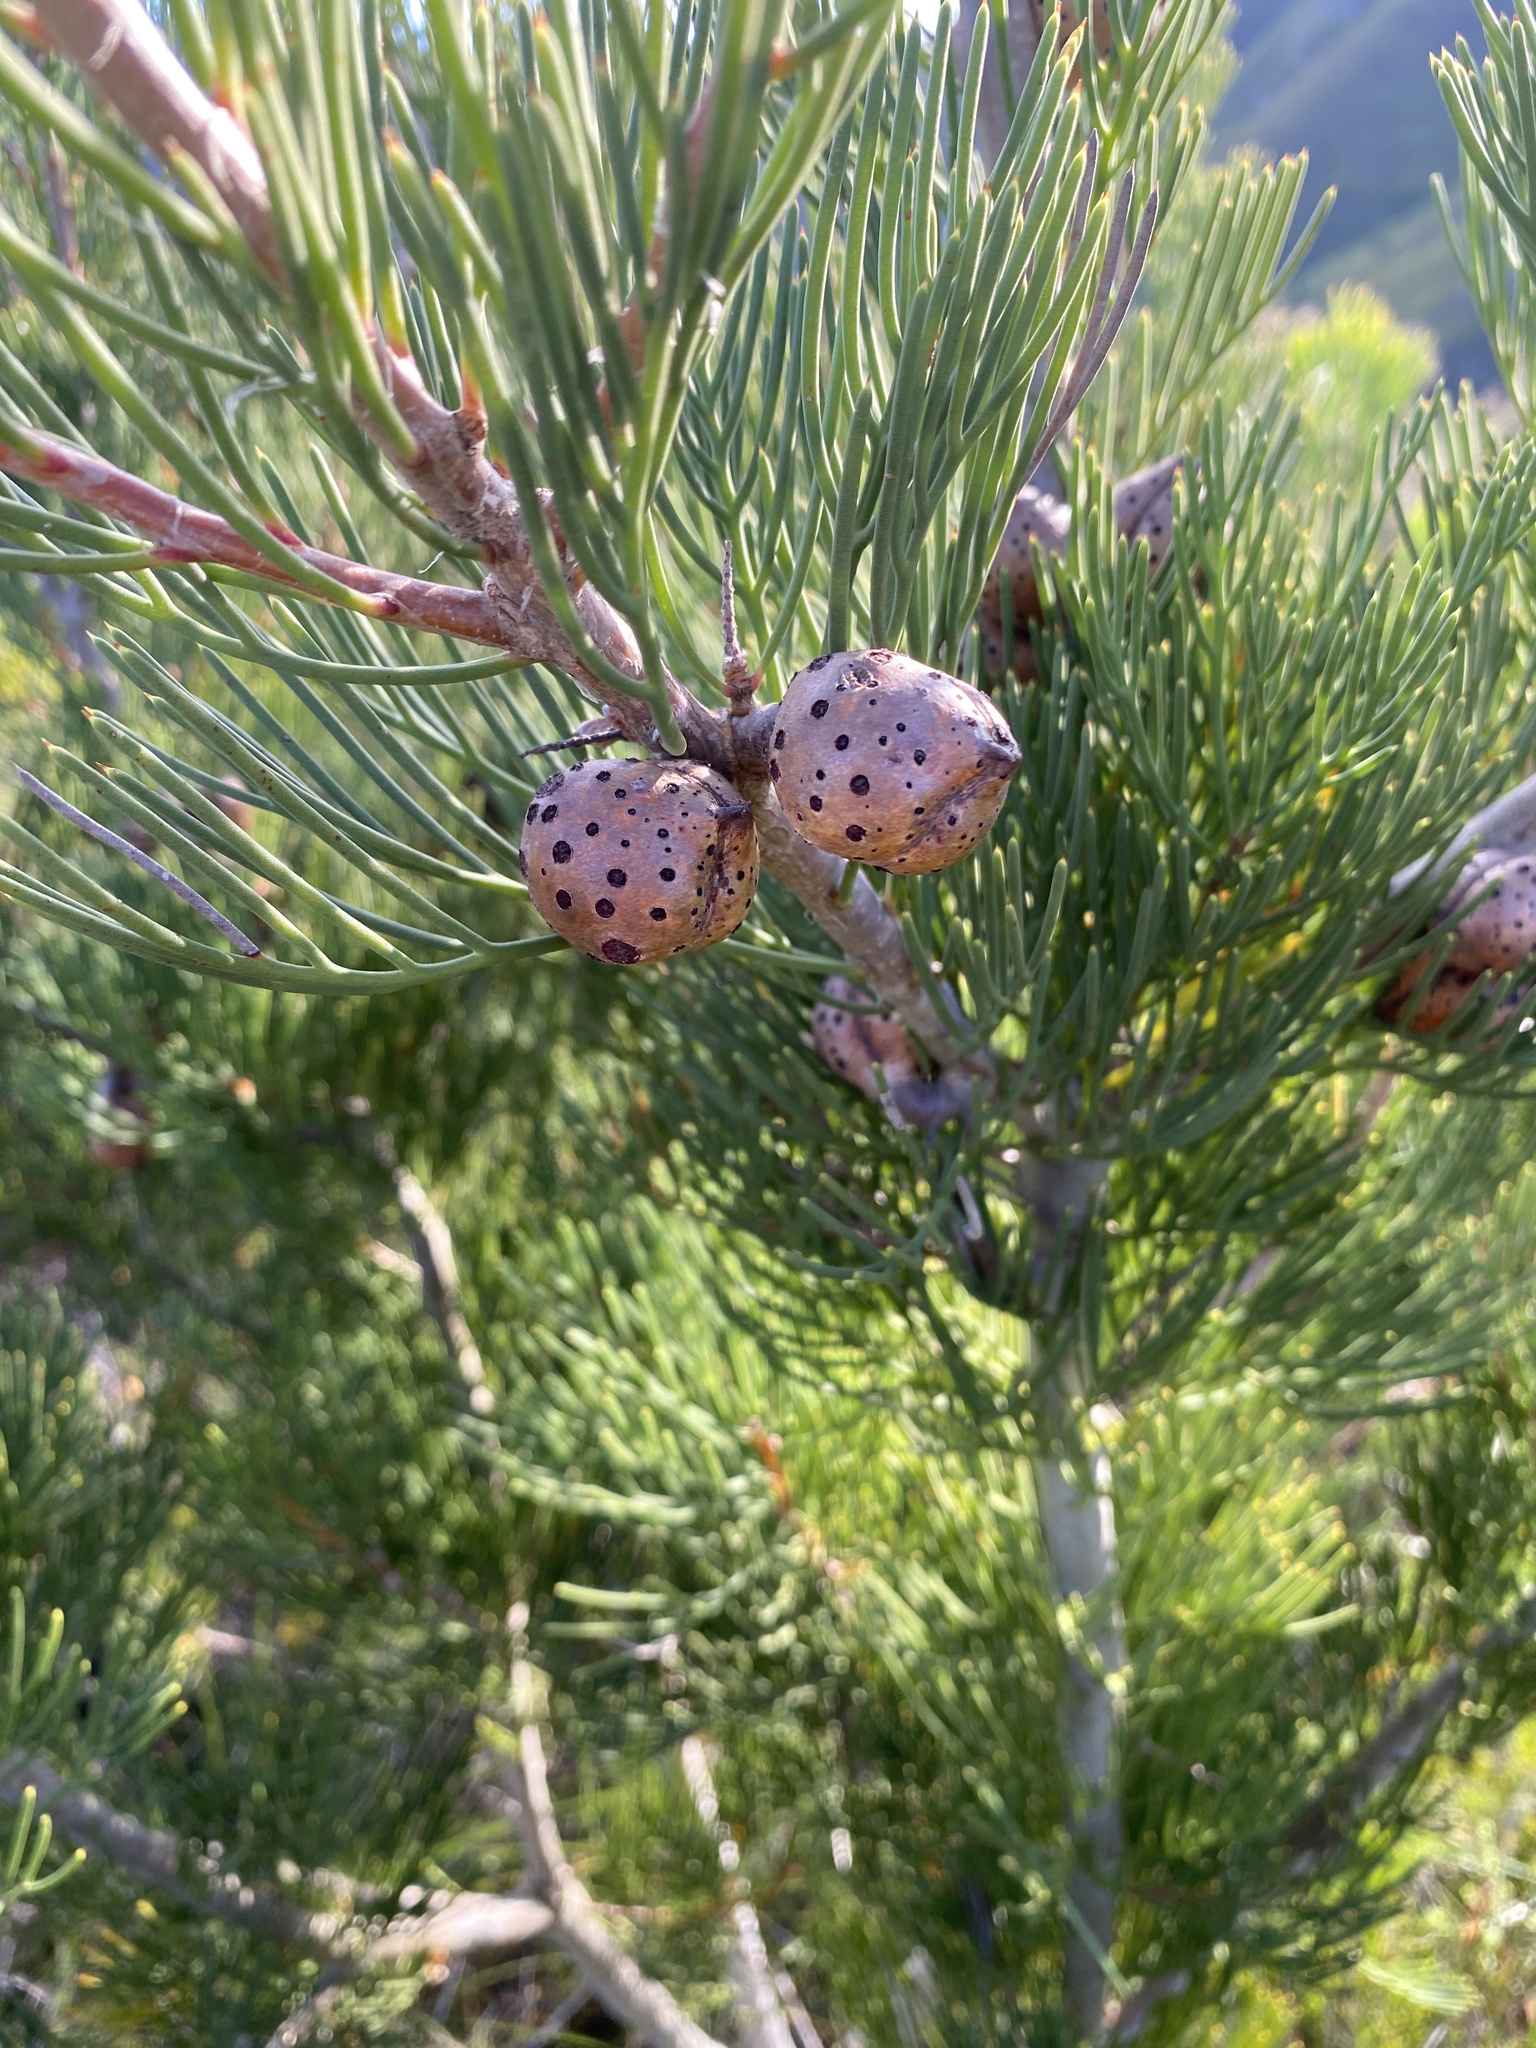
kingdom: Plantae
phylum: Tracheophyta
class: Magnoliopsida
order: Proteales
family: Proteaceae
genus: Hakea
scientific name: Hakea drupacea
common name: Sweet hakea
